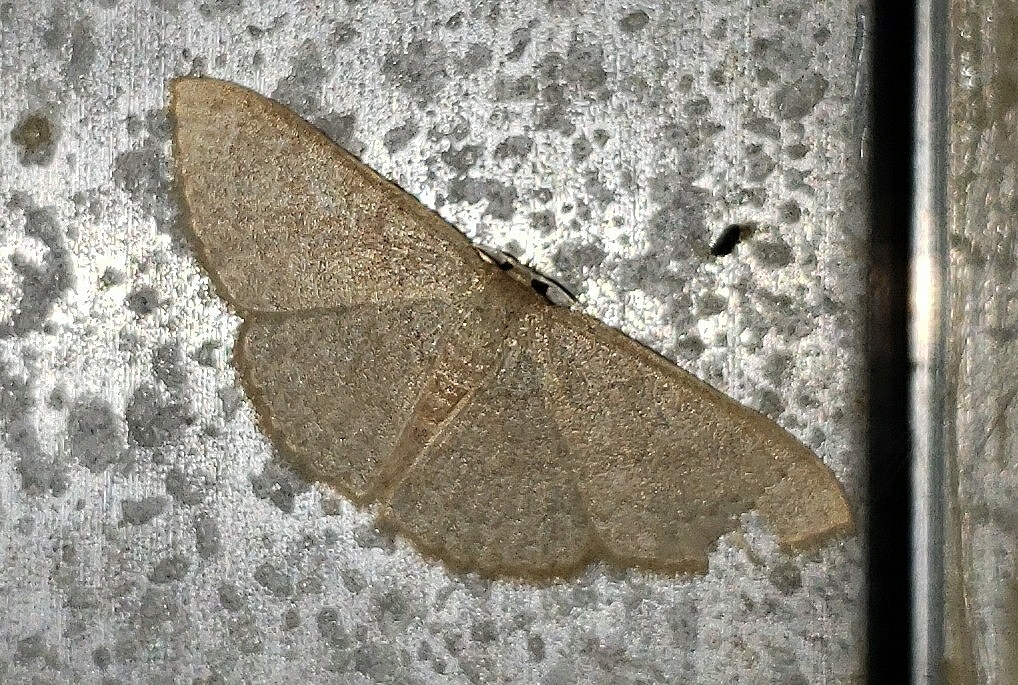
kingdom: Animalia
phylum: Arthropoda
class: Insecta
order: Lepidoptera
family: Geometridae
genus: Pleuroprucha
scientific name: Pleuroprucha insulsaria
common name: Common tan wave
